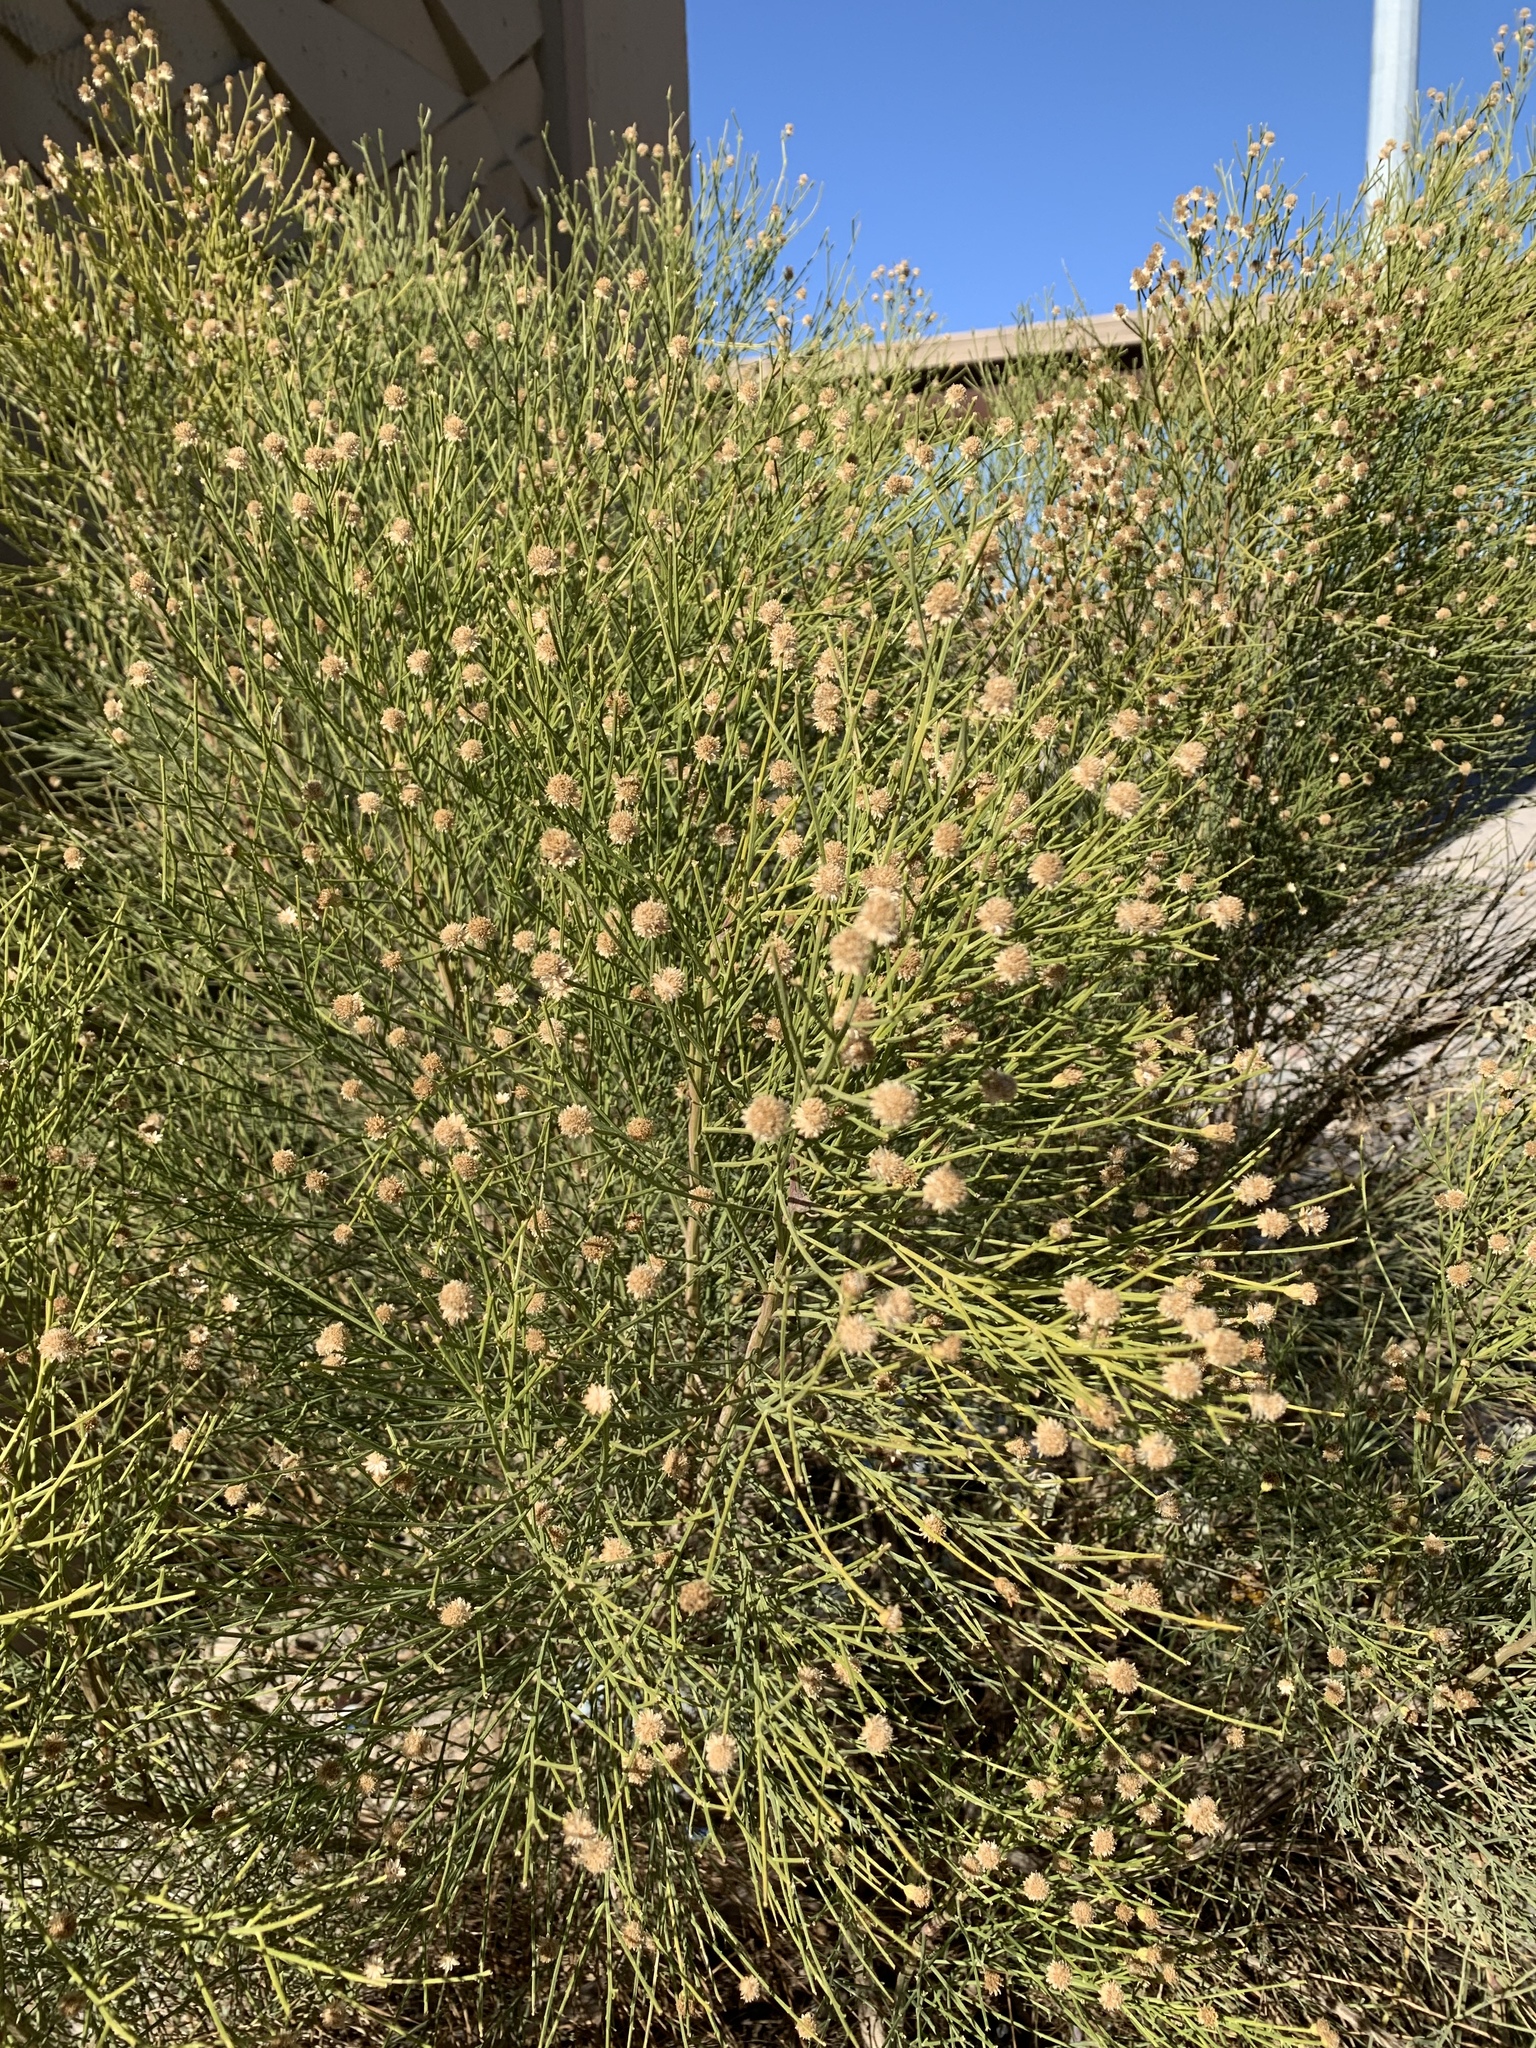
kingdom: Plantae
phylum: Tracheophyta
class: Magnoliopsida
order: Asterales
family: Asteraceae
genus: Baccharis
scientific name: Baccharis sarothroides
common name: Desert-broom
